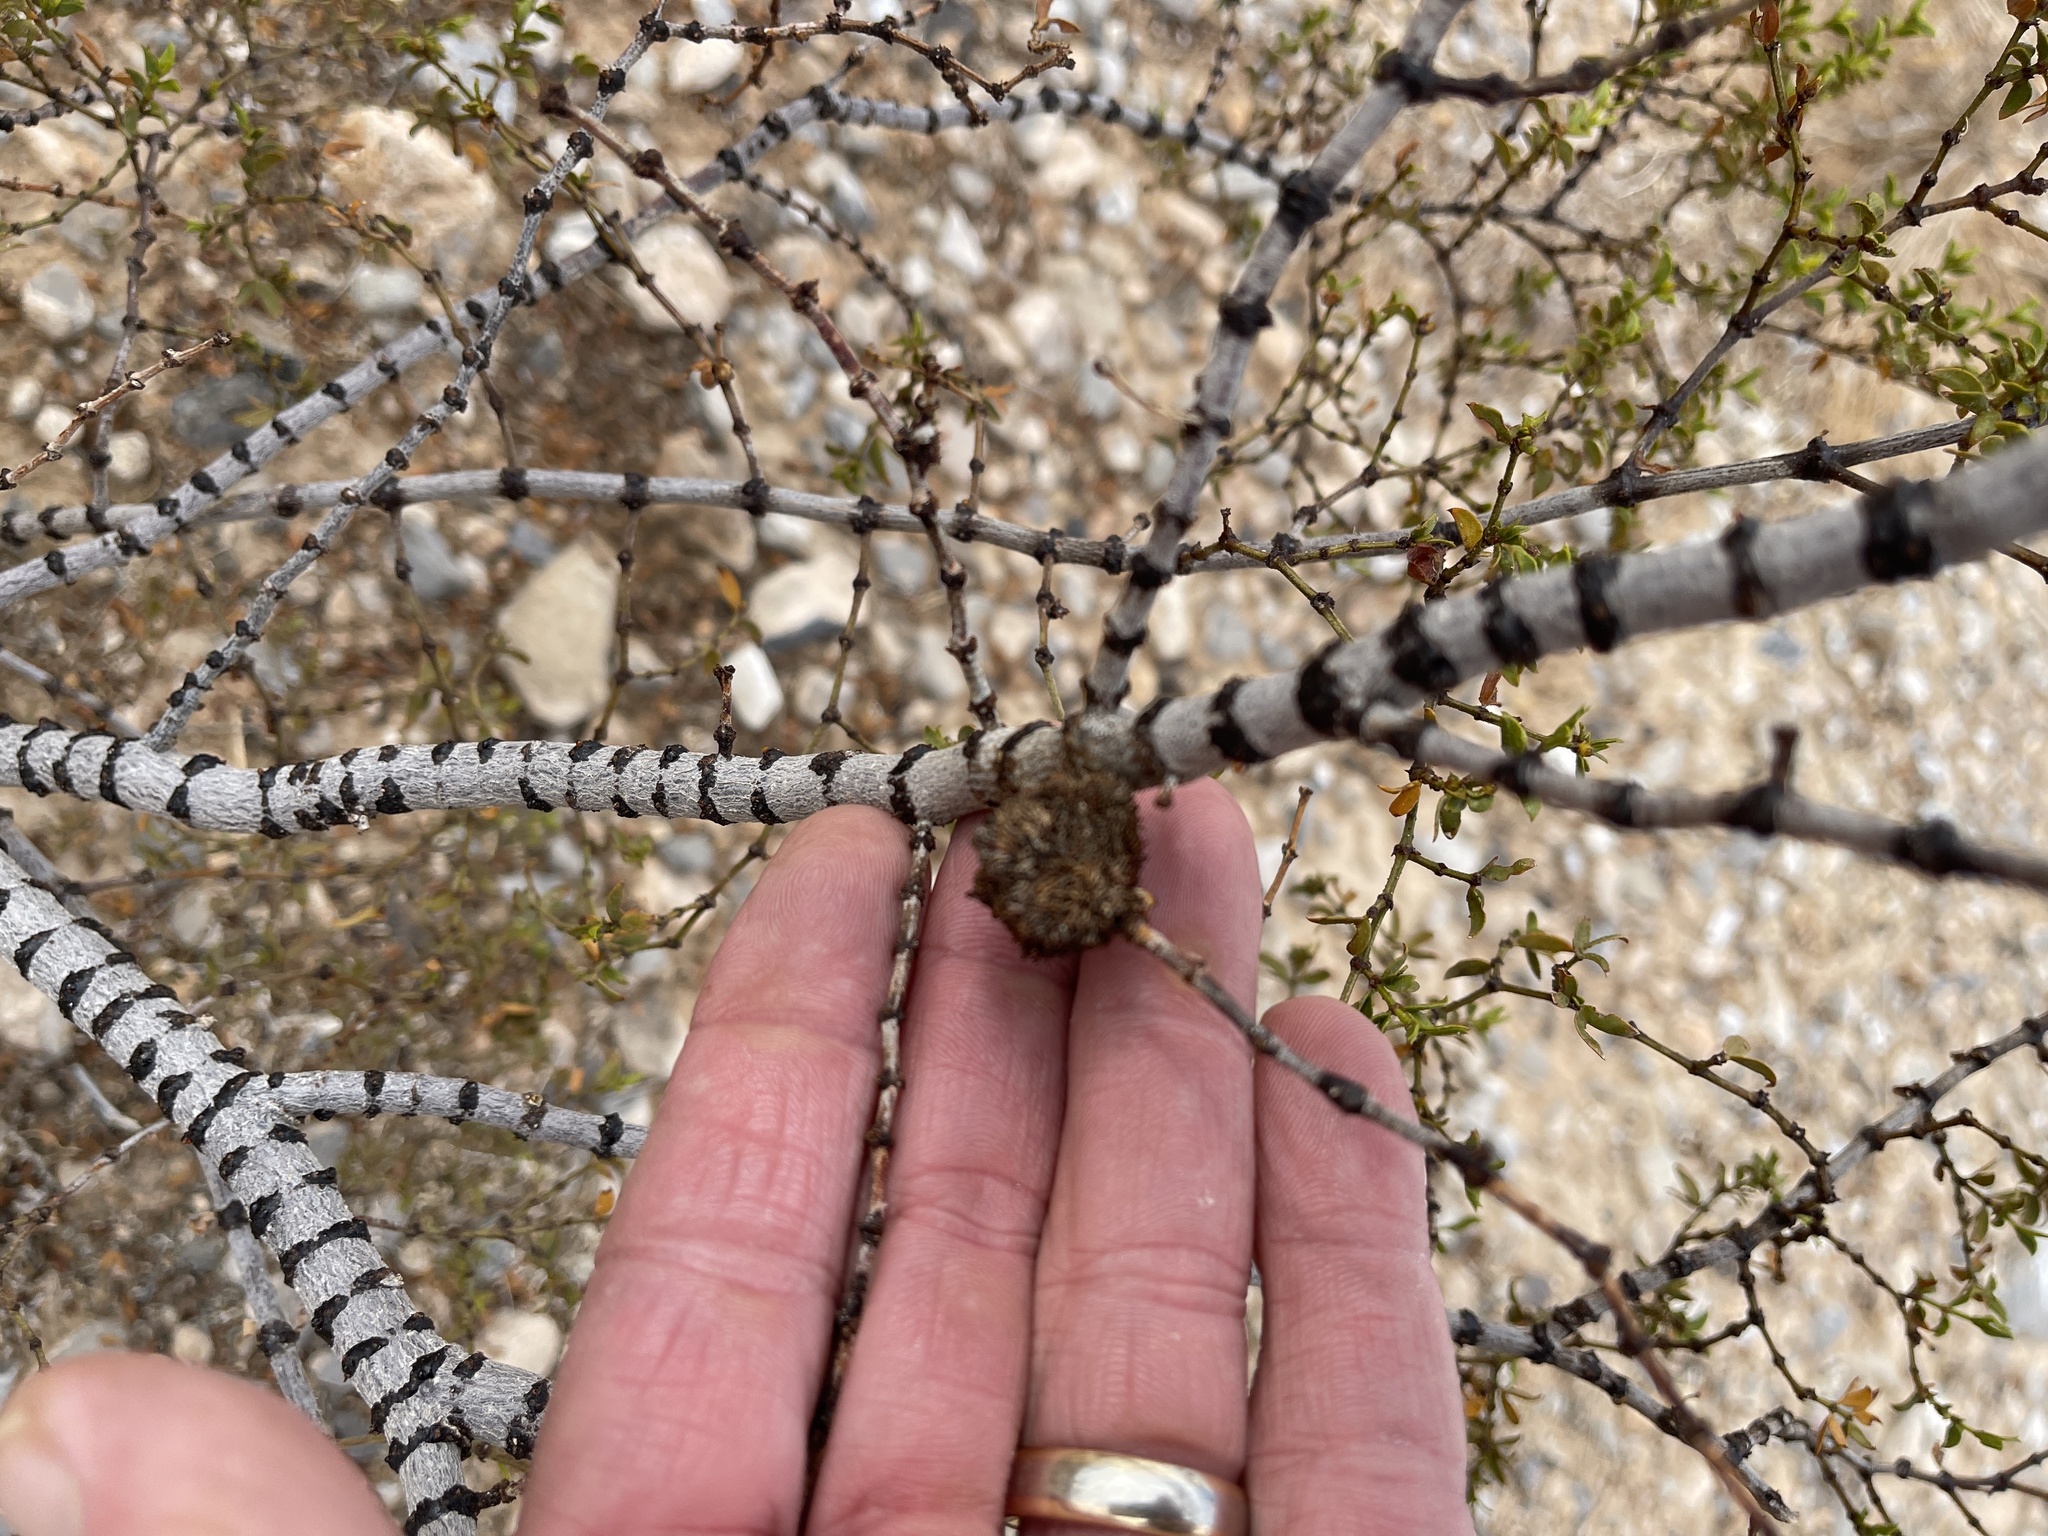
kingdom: Animalia
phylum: Arthropoda
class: Insecta
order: Diptera
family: Cecidomyiidae
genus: Asphondylia
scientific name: Asphondylia auripila
